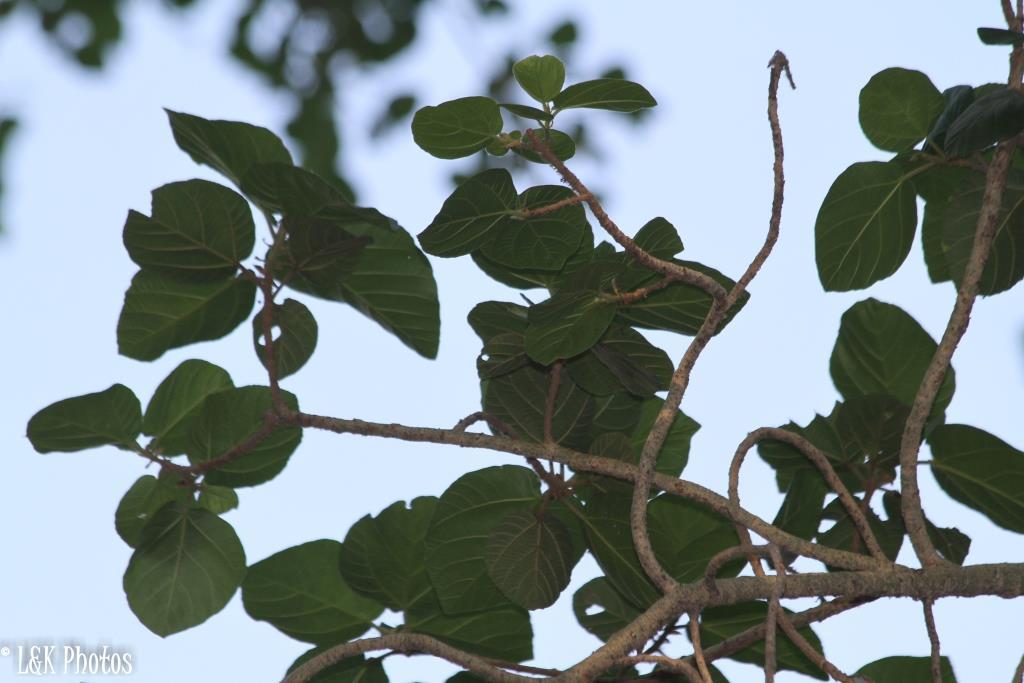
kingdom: Plantae
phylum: Tracheophyta
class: Magnoliopsida
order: Rosales
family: Moraceae
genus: Ficus
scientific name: Ficus sycomorus
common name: Sycomore
